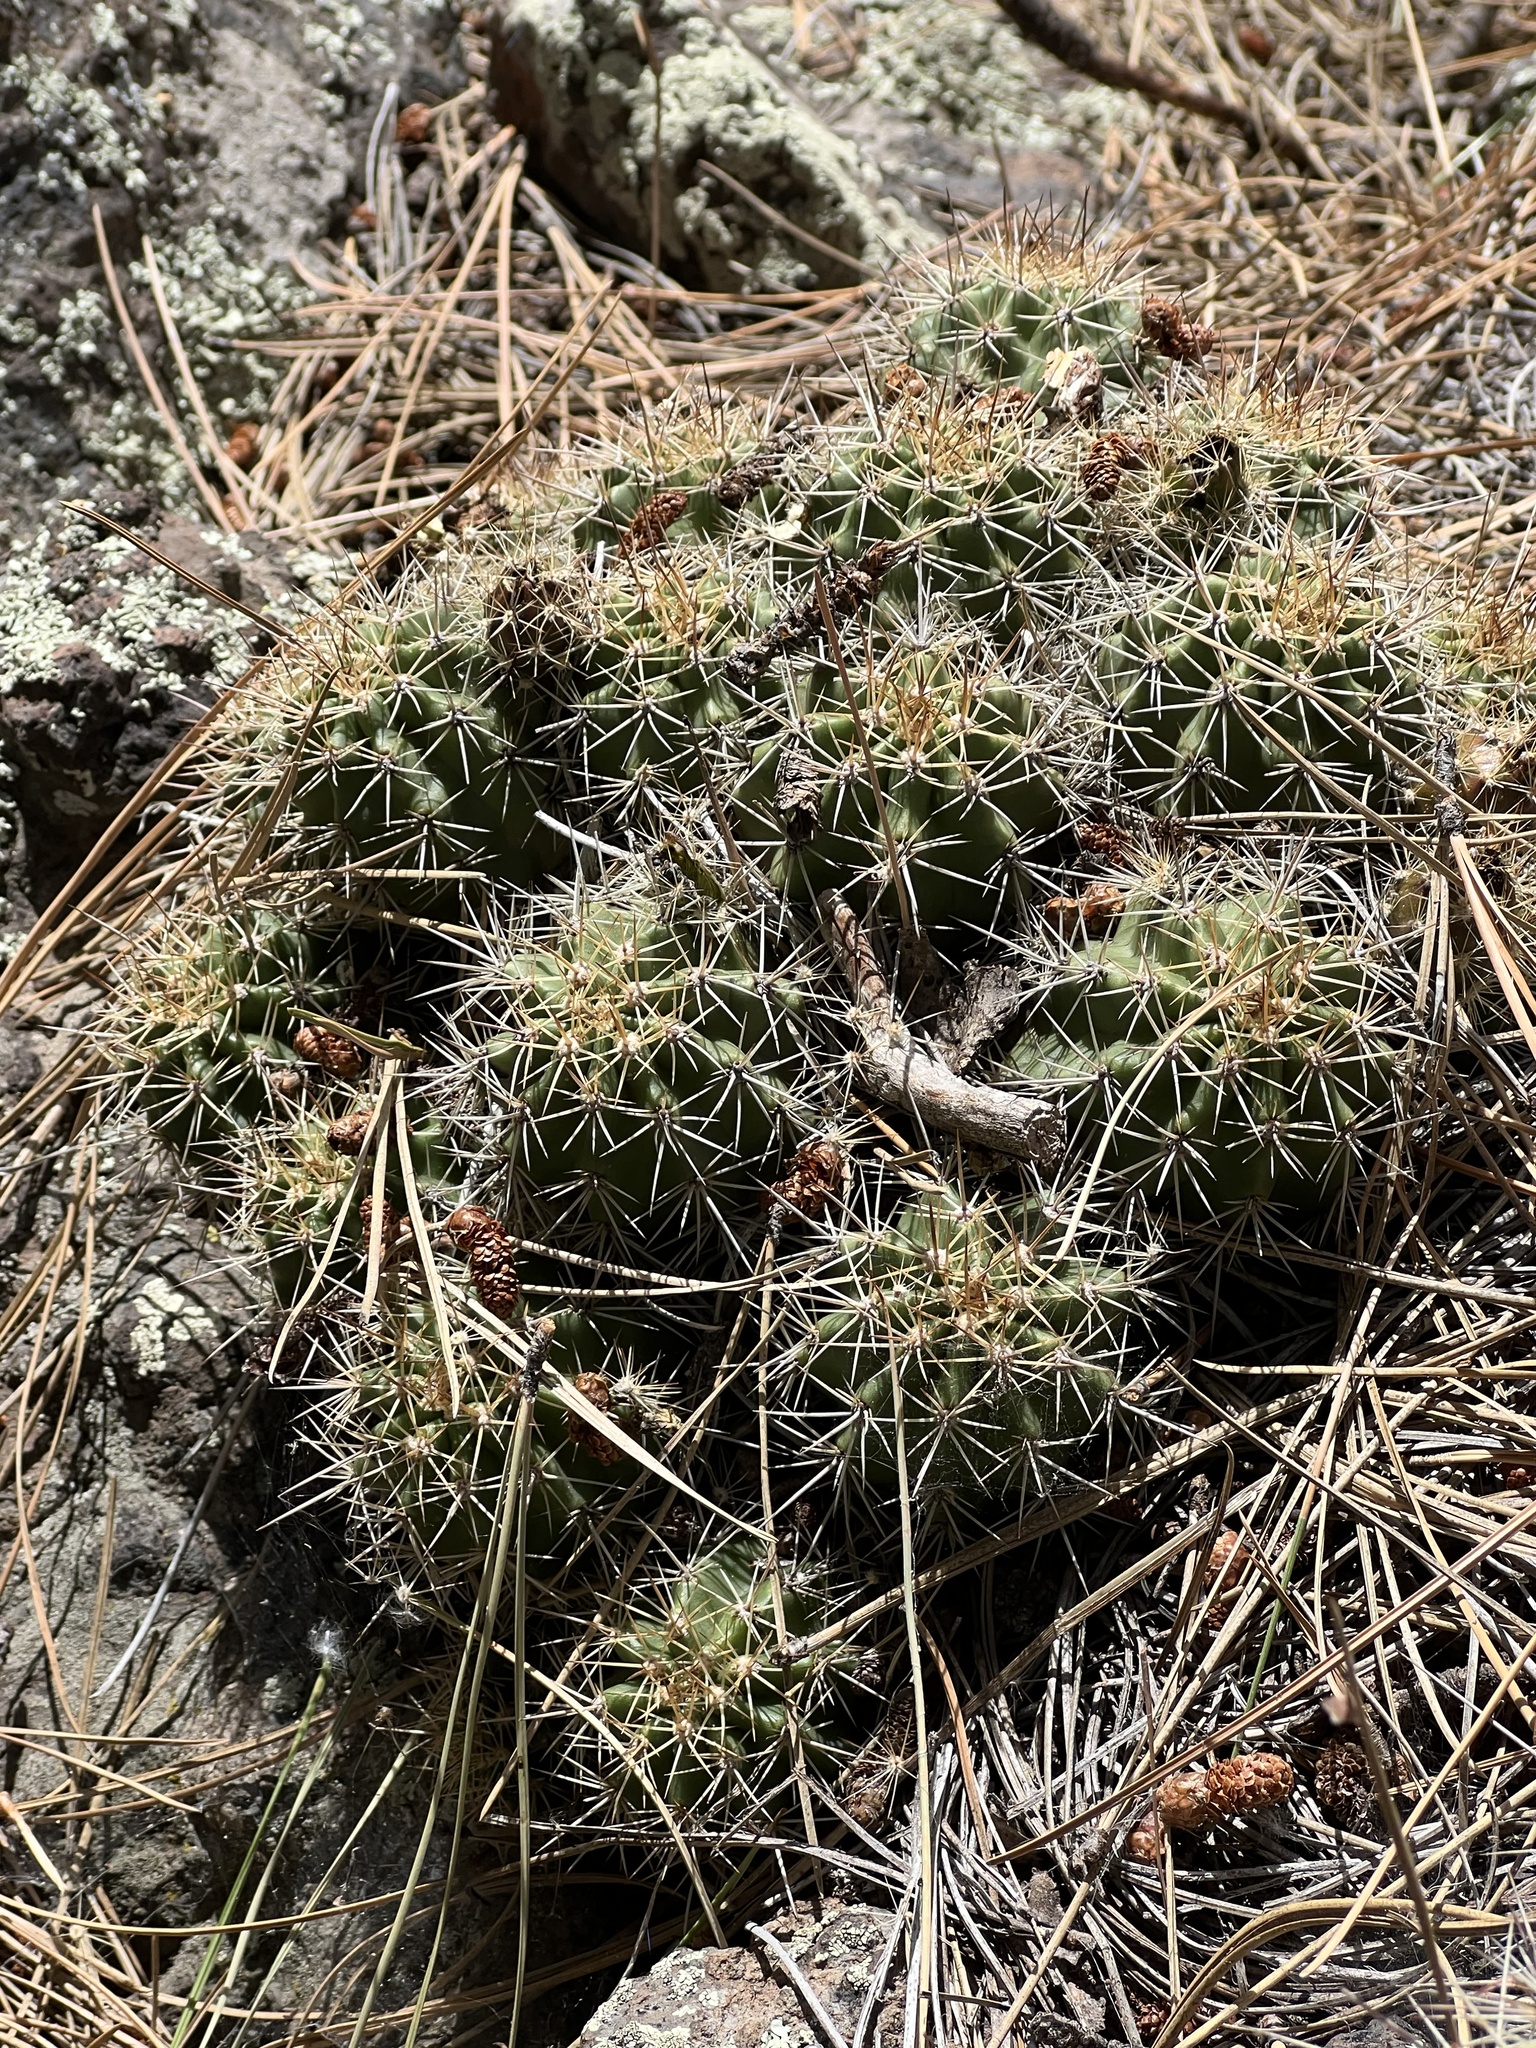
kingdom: Plantae
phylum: Tracheophyta
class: Magnoliopsida
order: Caryophyllales
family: Cactaceae
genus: Echinocereus
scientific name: Echinocereus bakeri
